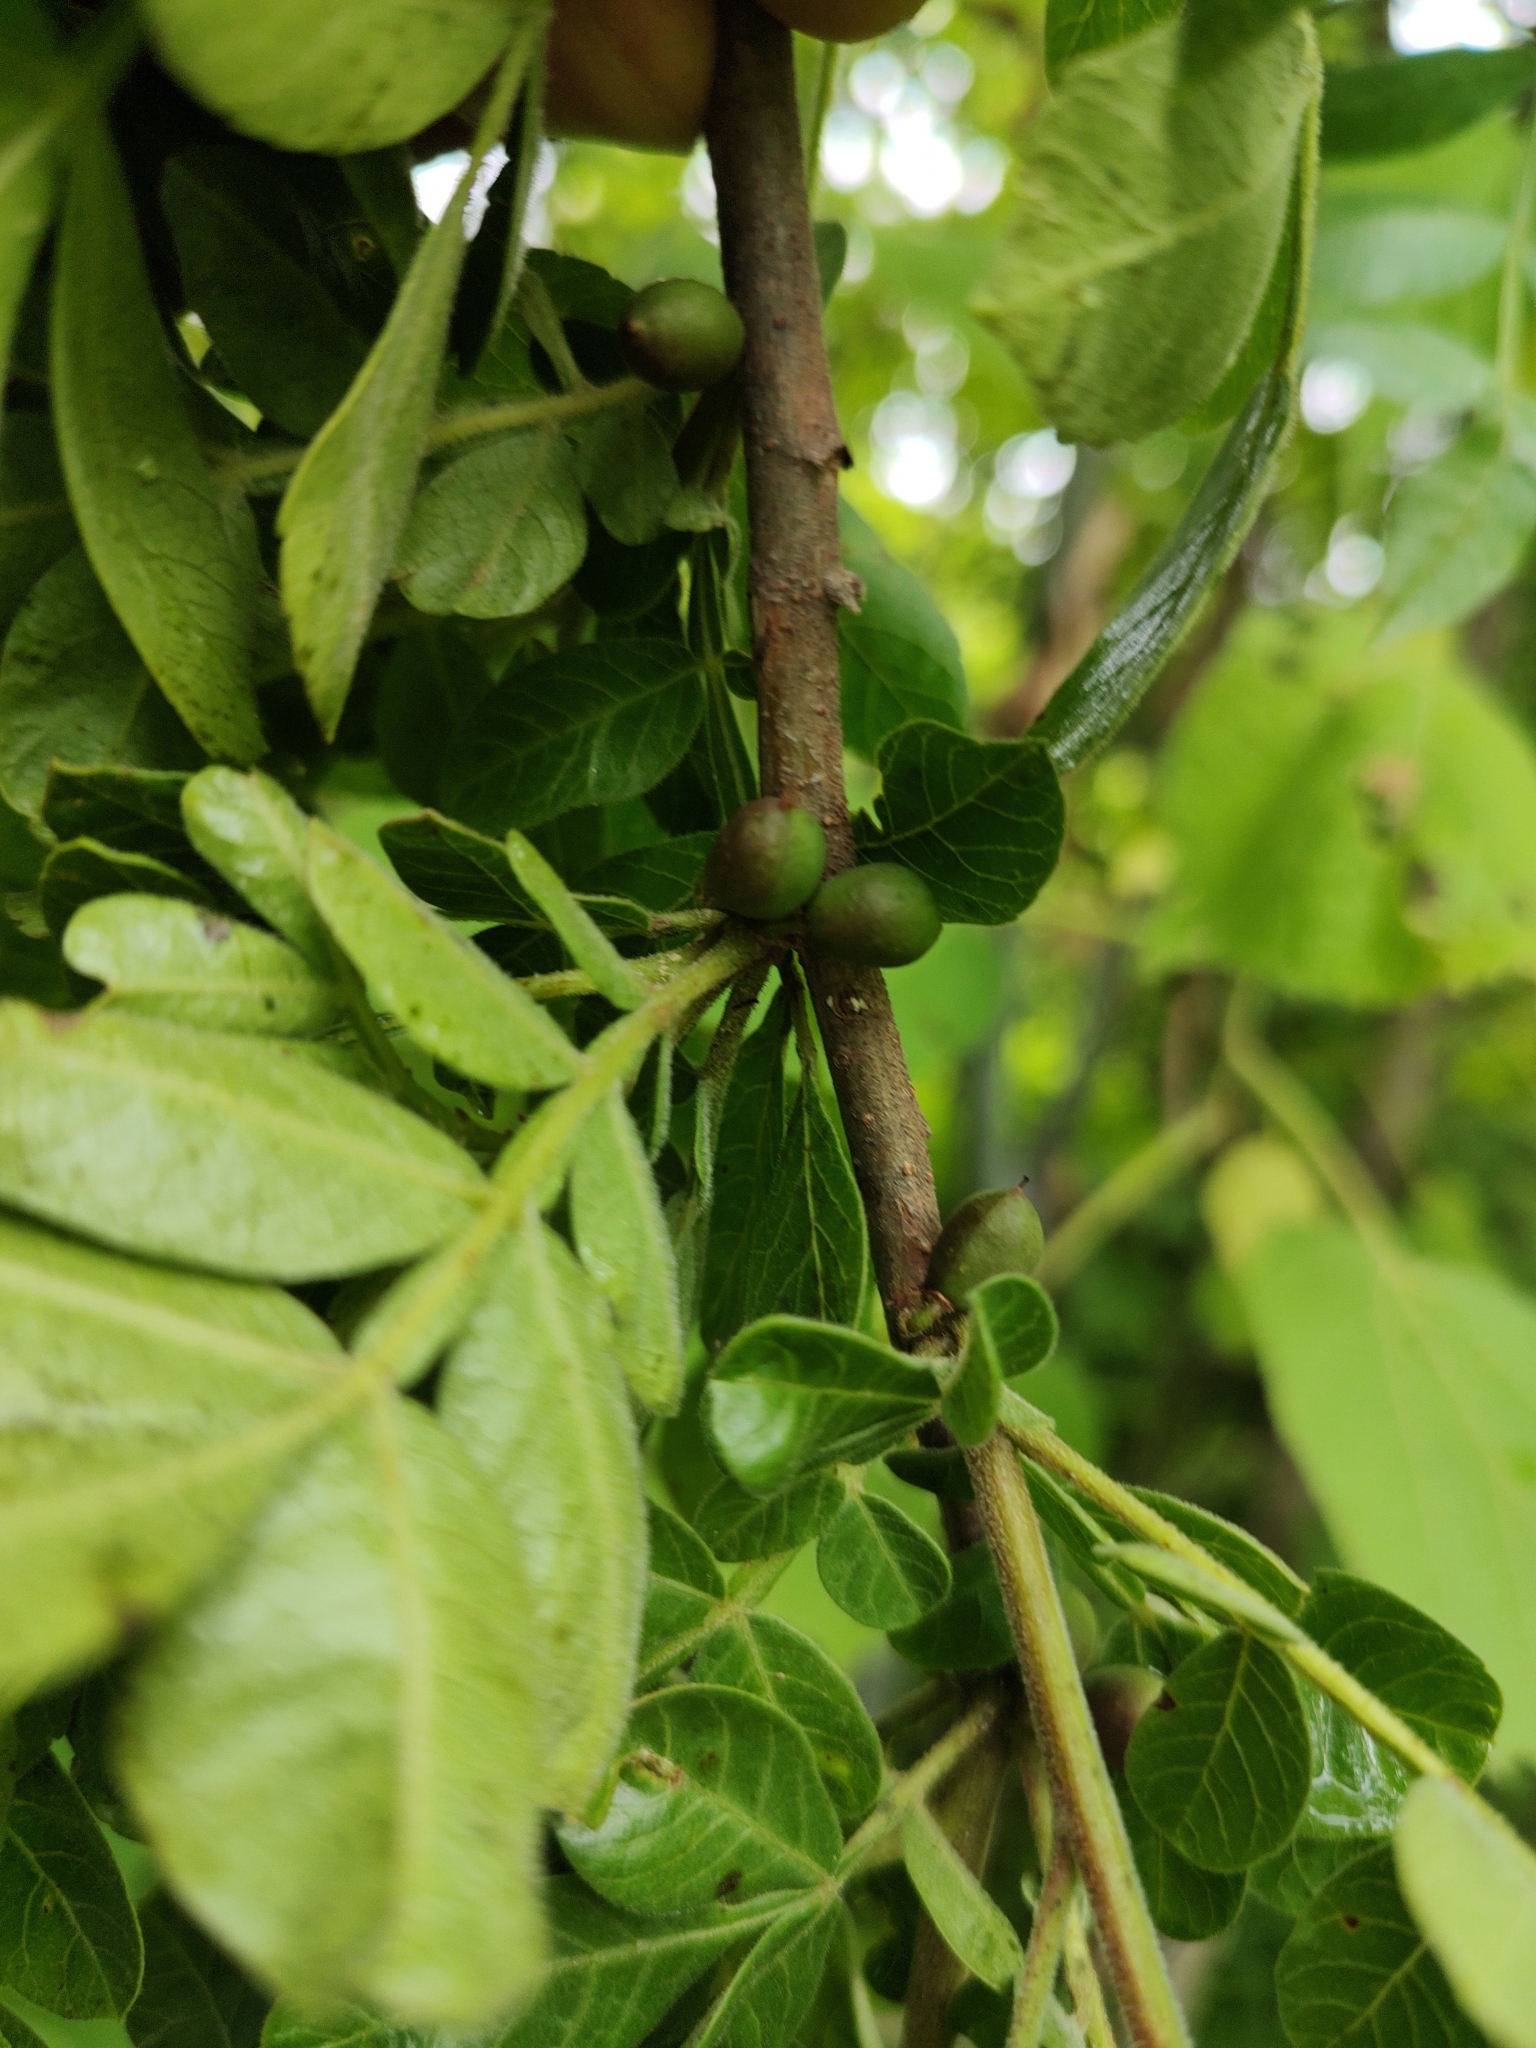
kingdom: Plantae
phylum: Tracheophyta
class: Magnoliopsida
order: Sapindales
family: Burseraceae
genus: Bursera
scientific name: Bursera ariensis
